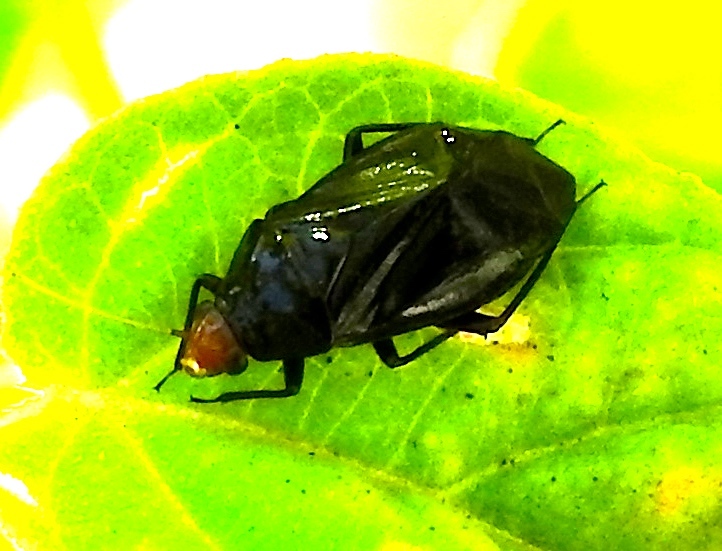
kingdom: Animalia
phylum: Arthropoda
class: Insecta
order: Hemiptera
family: Miridae
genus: Jornandinus
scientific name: Jornandinus grandis
